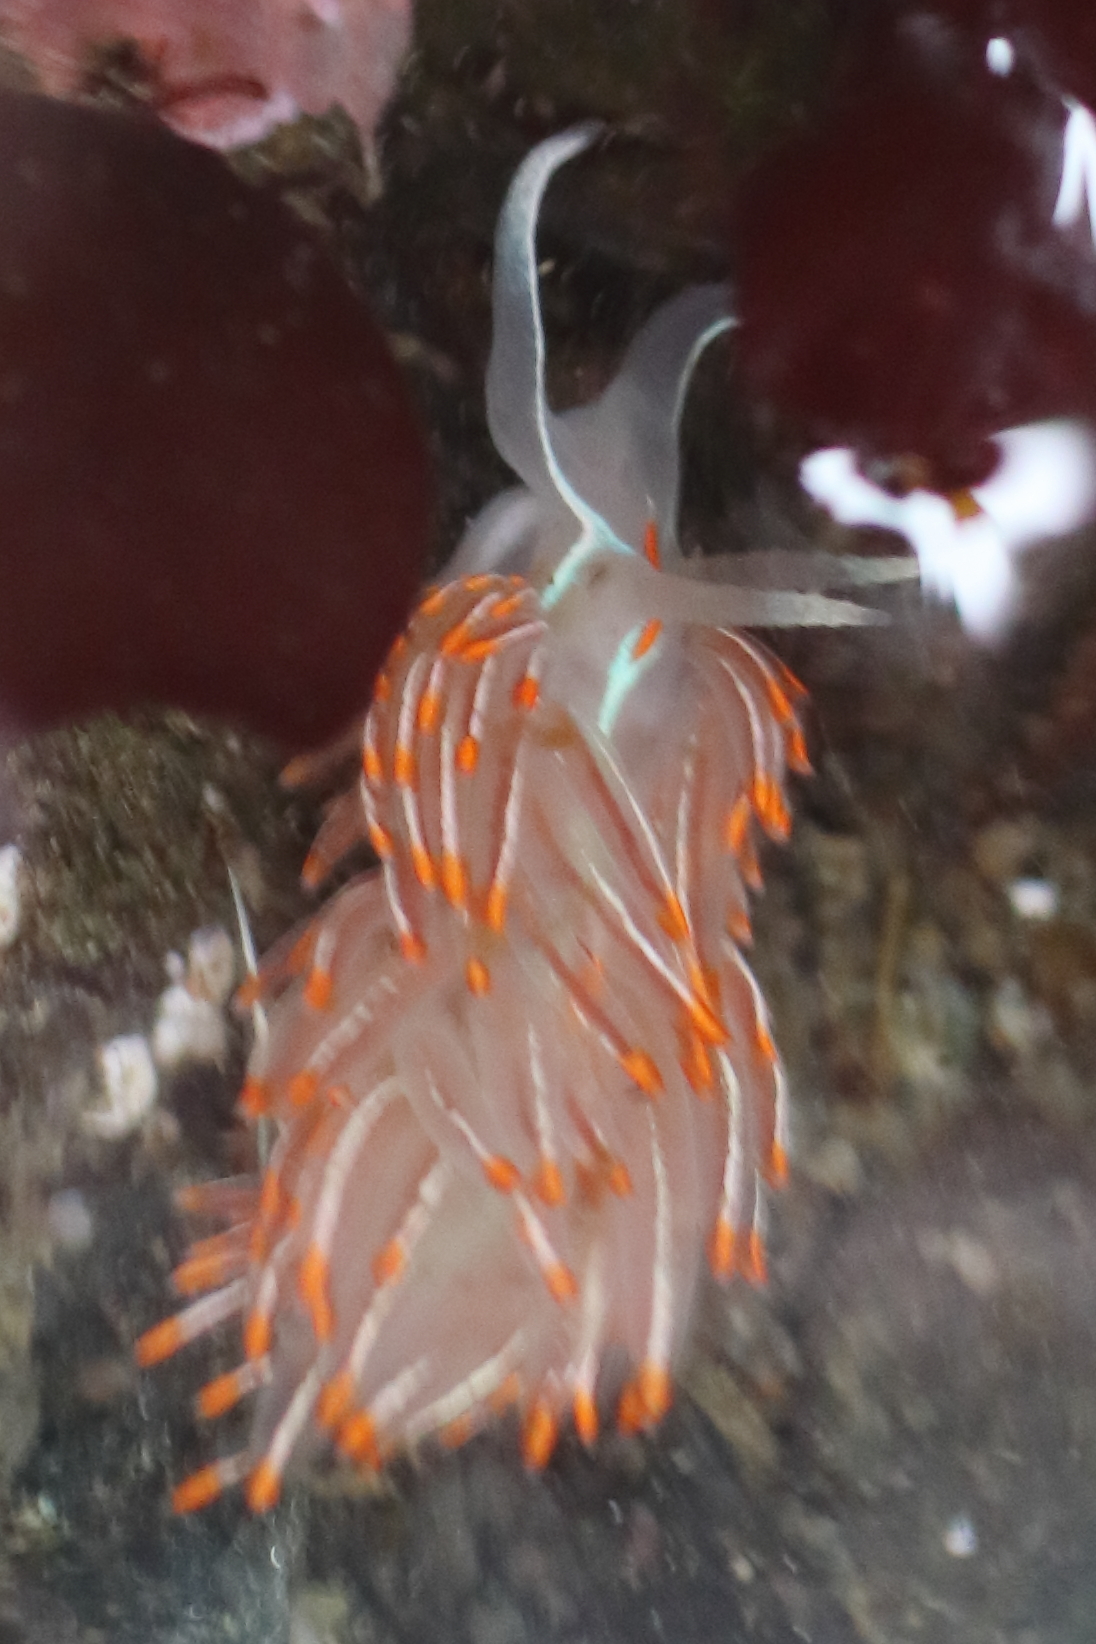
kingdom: Animalia
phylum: Mollusca
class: Gastropoda
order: Nudibranchia
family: Myrrhinidae
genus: Hermissenda
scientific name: Hermissenda crassicornis
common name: Hermissenda
